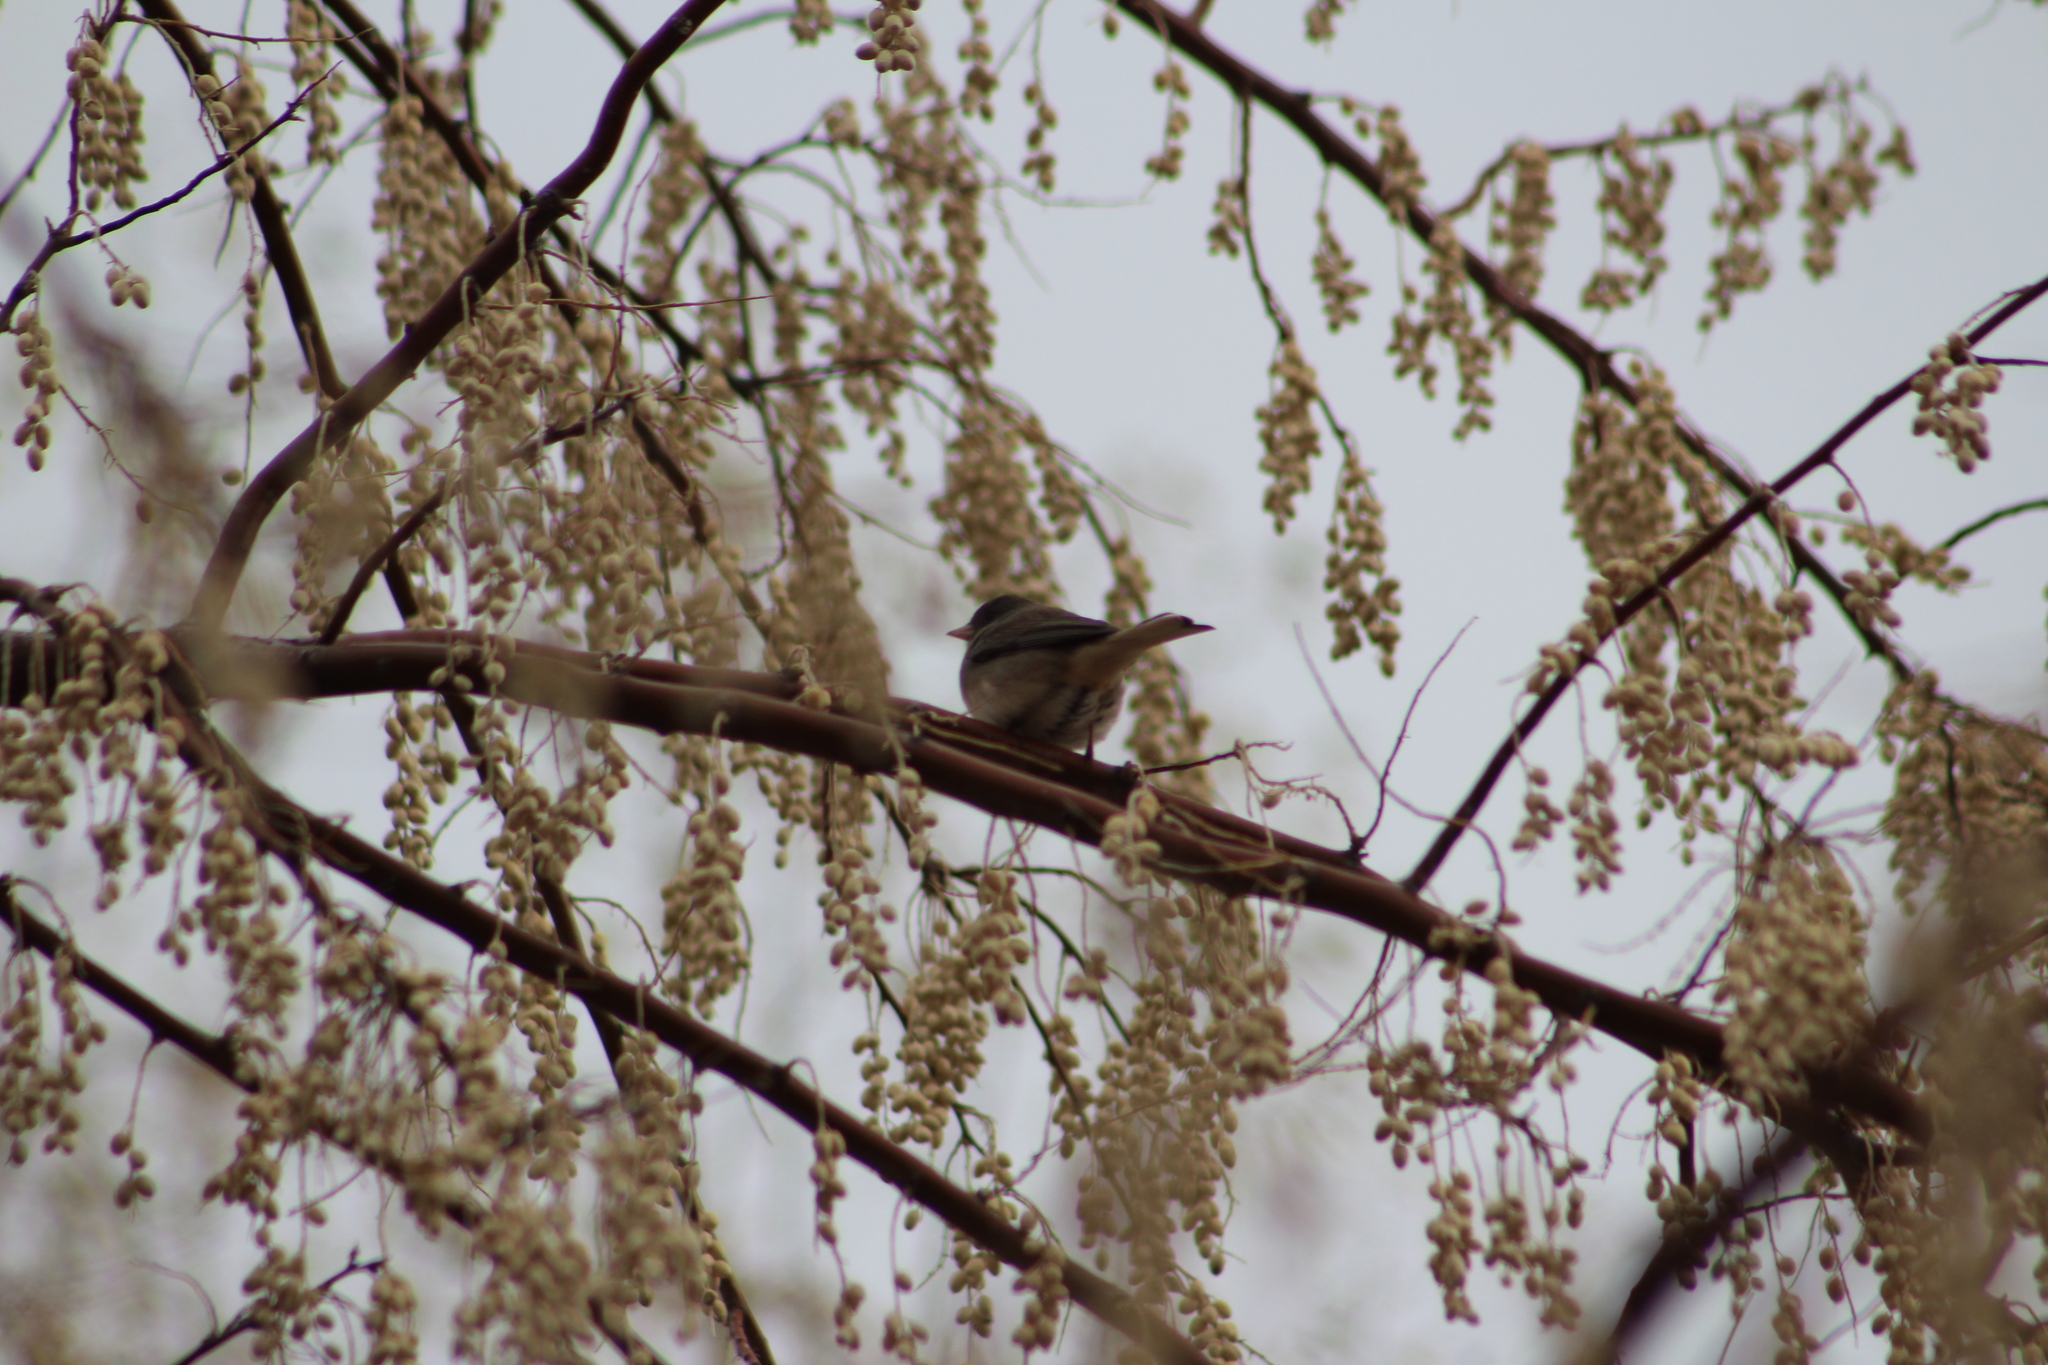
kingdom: Animalia
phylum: Chordata
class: Aves
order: Passeriformes
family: Passerellidae
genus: Junco
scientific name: Junco hyemalis
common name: Dark-eyed junco
